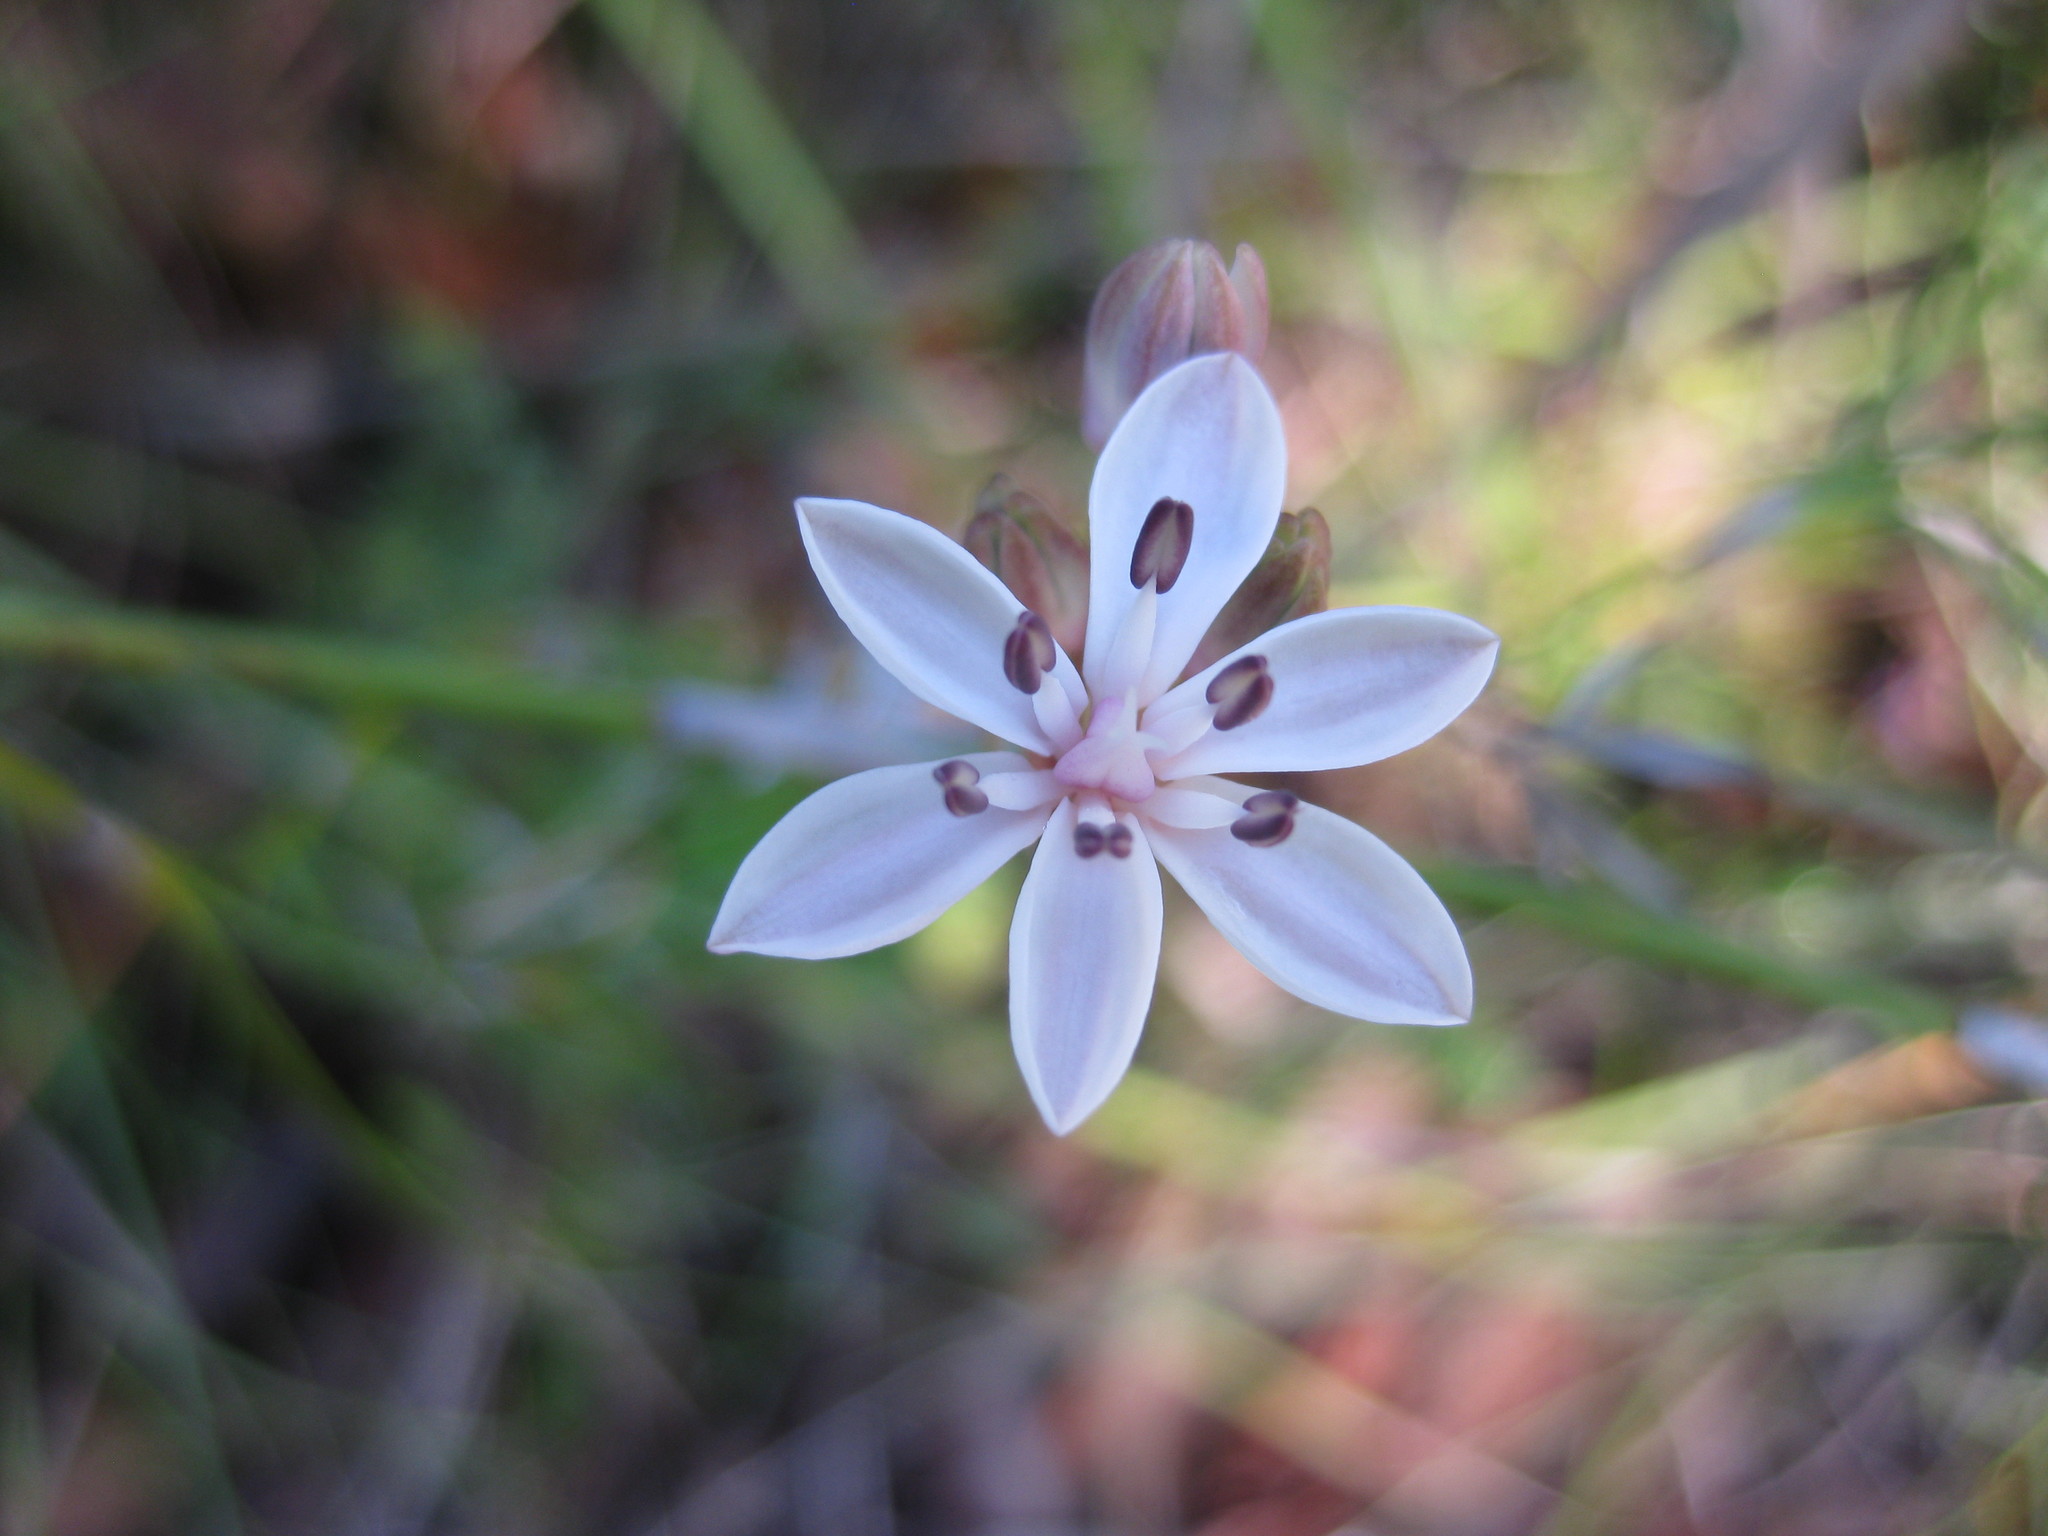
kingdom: Plantae
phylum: Tracheophyta
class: Liliopsida
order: Liliales
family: Colchicaceae
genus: Burchardia
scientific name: Burchardia umbellata
